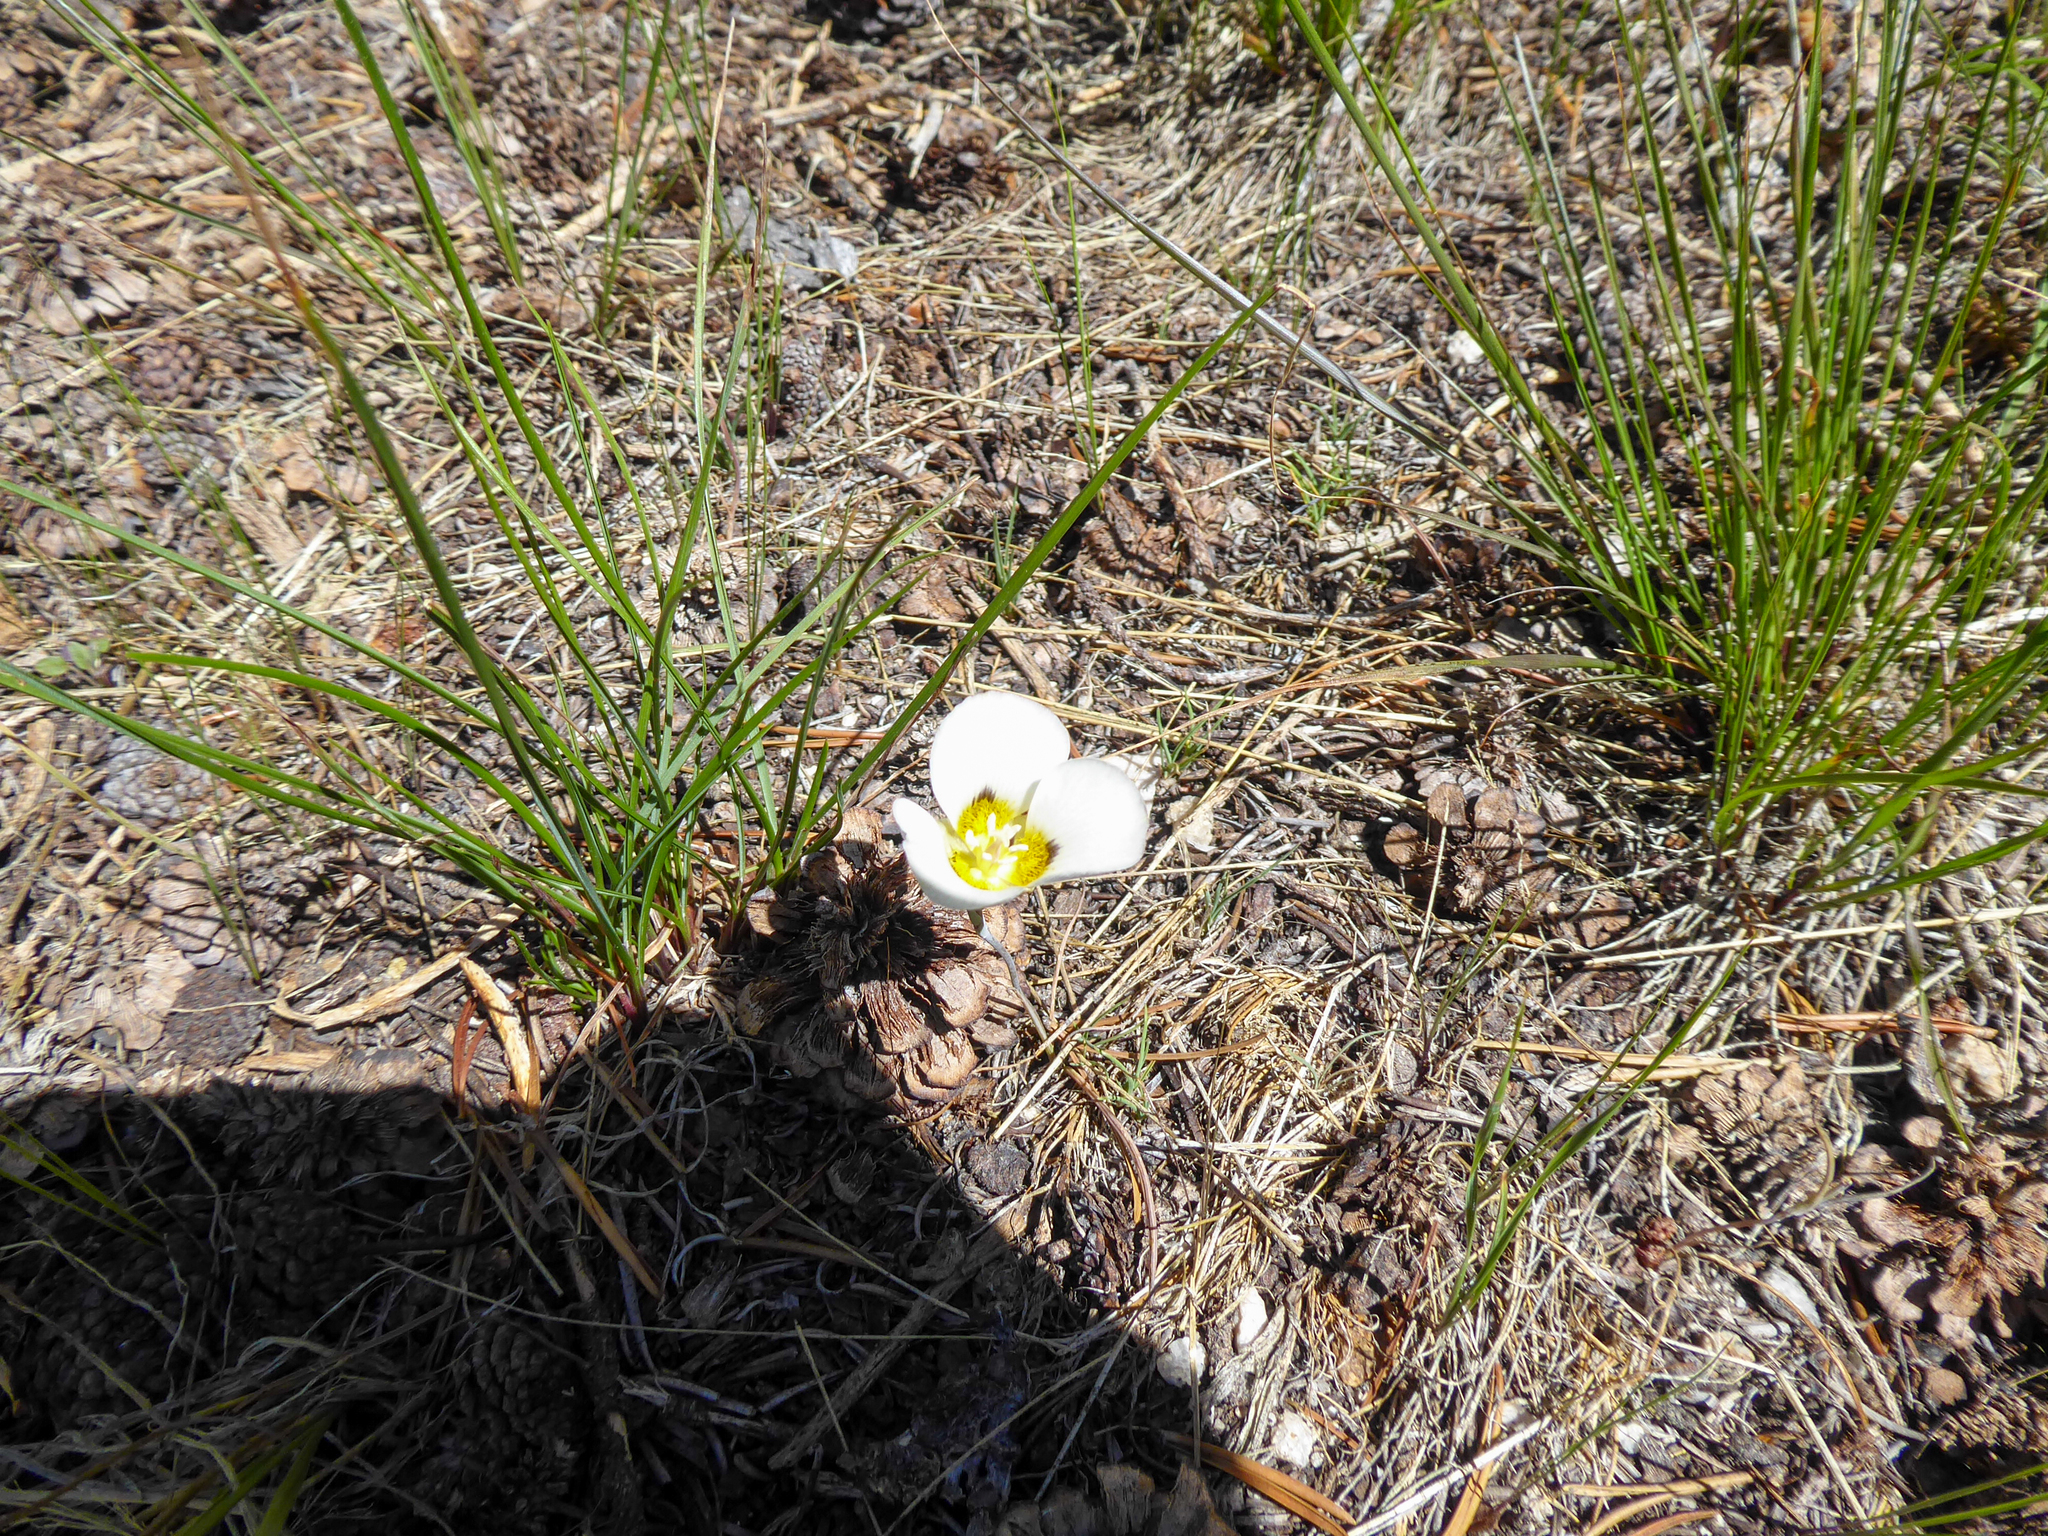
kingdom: Plantae
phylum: Tracheophyta
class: Liliopsida
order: Liliales
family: Liliaceae
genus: Calochortus
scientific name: Calochortus leichtlinii
